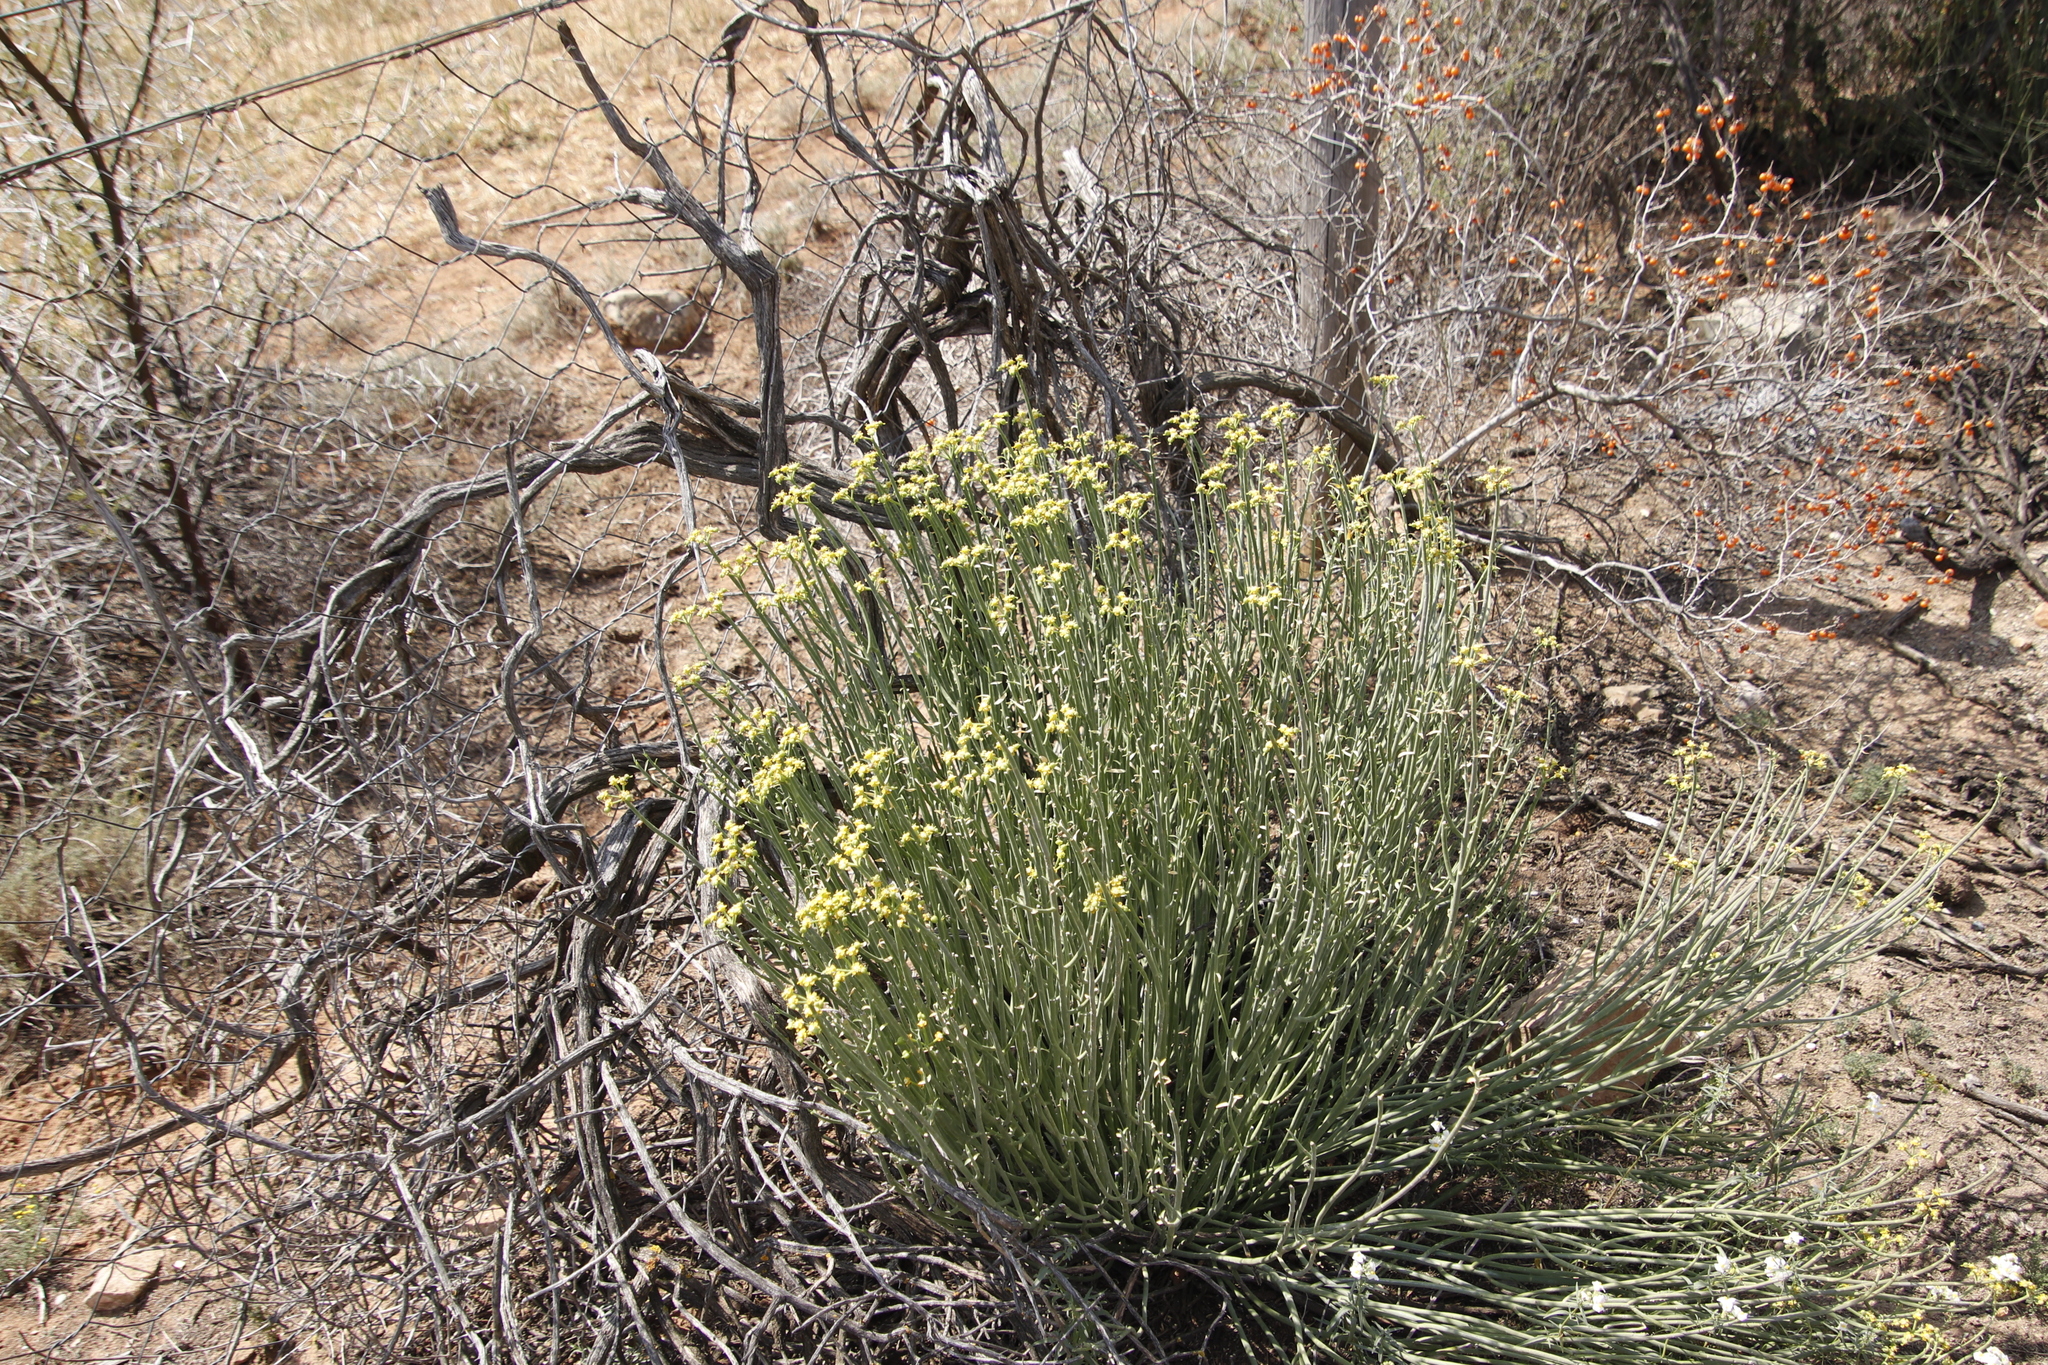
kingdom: Plantae
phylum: Tracheophyta
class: Magnoliopsida
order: Malpighiales
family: Euphorbiaceae
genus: Euphorbia
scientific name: Euphorbia mauritanica
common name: Jackal's-food
